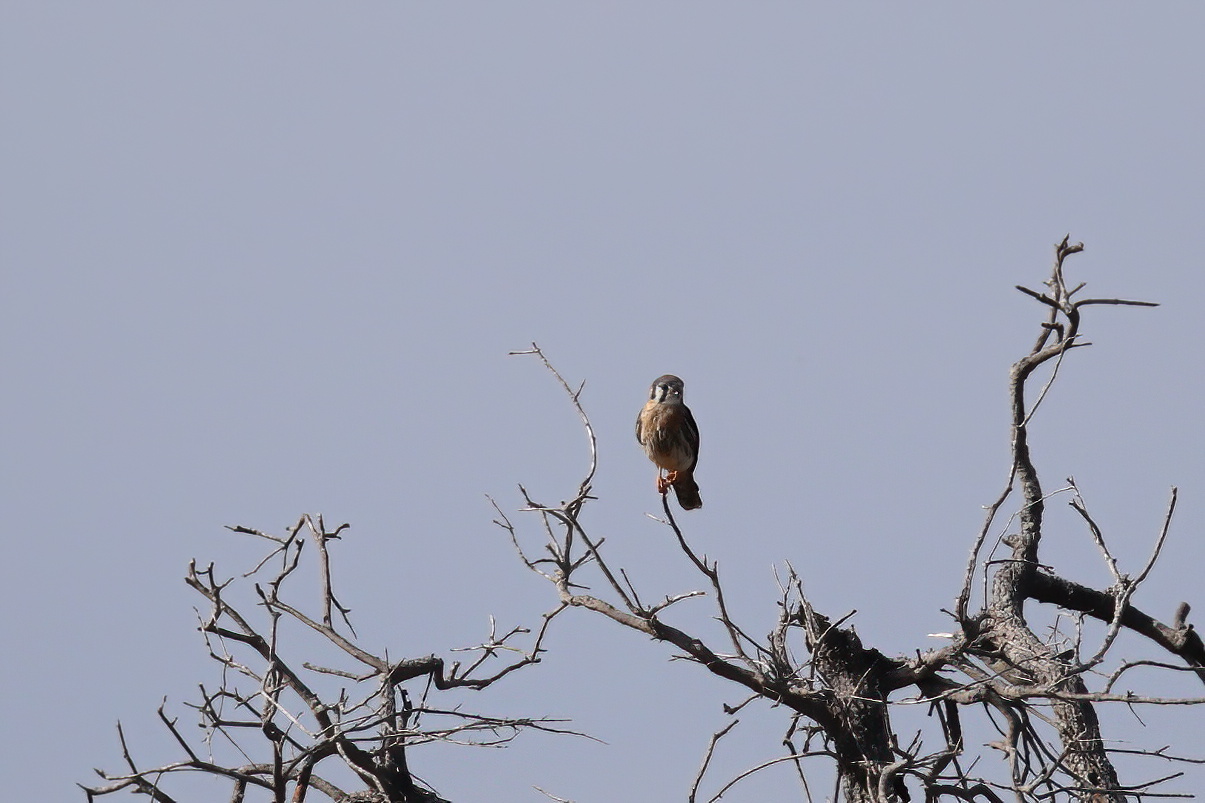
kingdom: Animalia
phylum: Chordata
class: Aves
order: Falconiformes
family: Falconidae
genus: Falco
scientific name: Falco sparverius
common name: American kestrel
